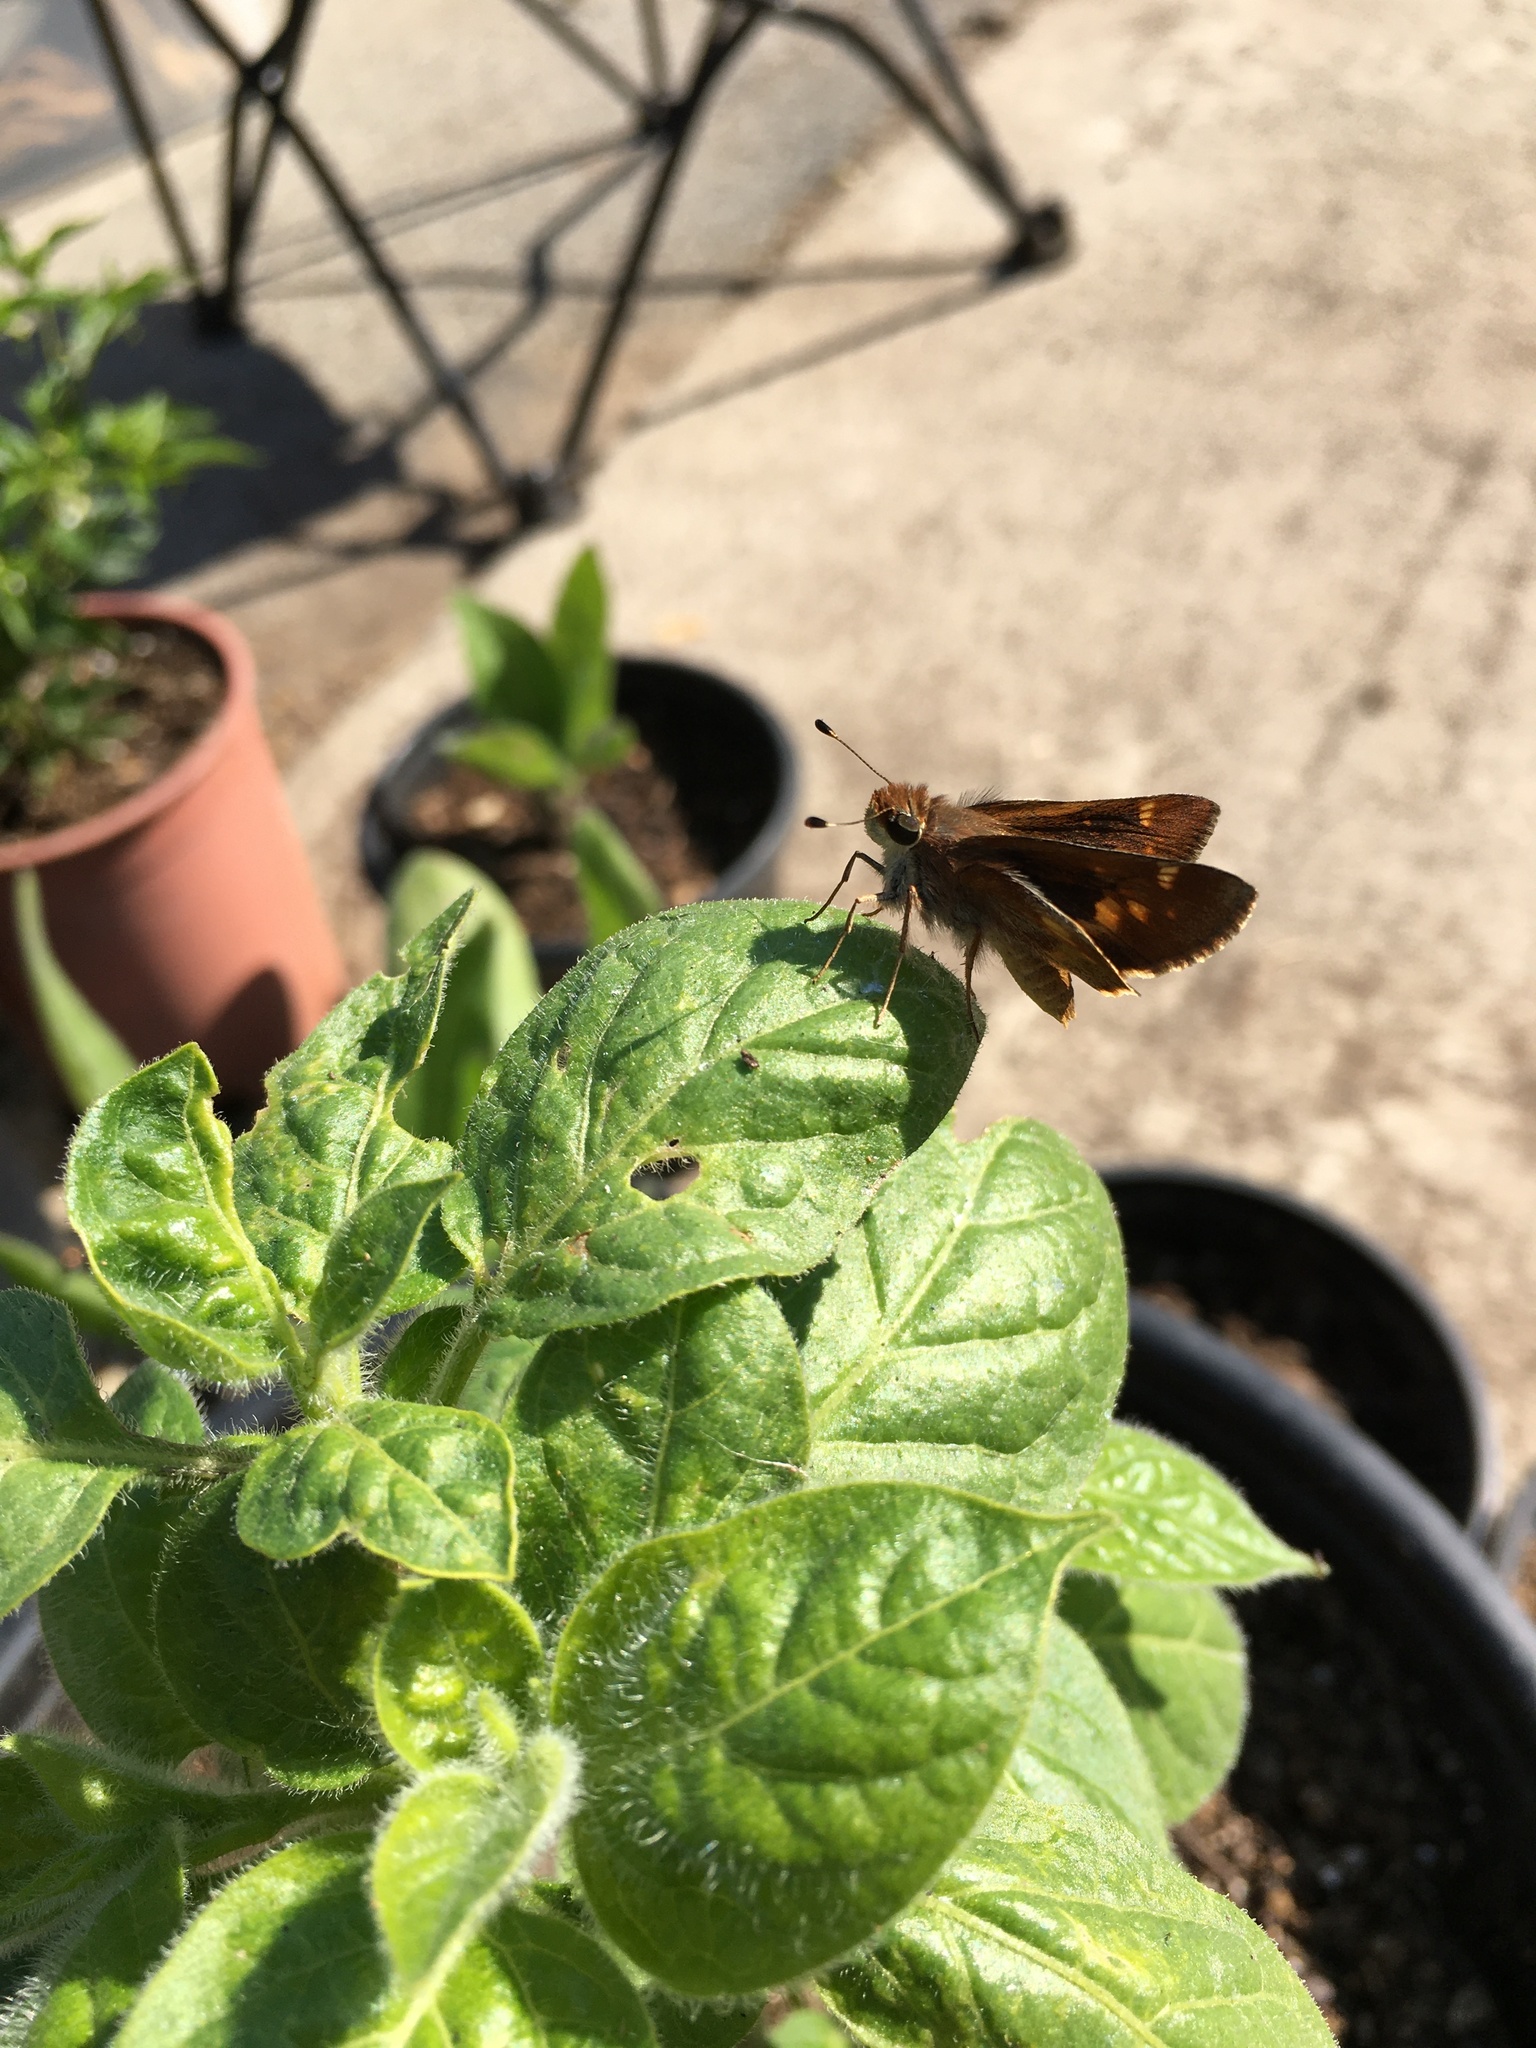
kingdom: Animalia
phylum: Arthropoda
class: Insecta
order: Lepidoptera
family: Hesperiidae
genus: Lon
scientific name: Lon melane
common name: Umber skipper
